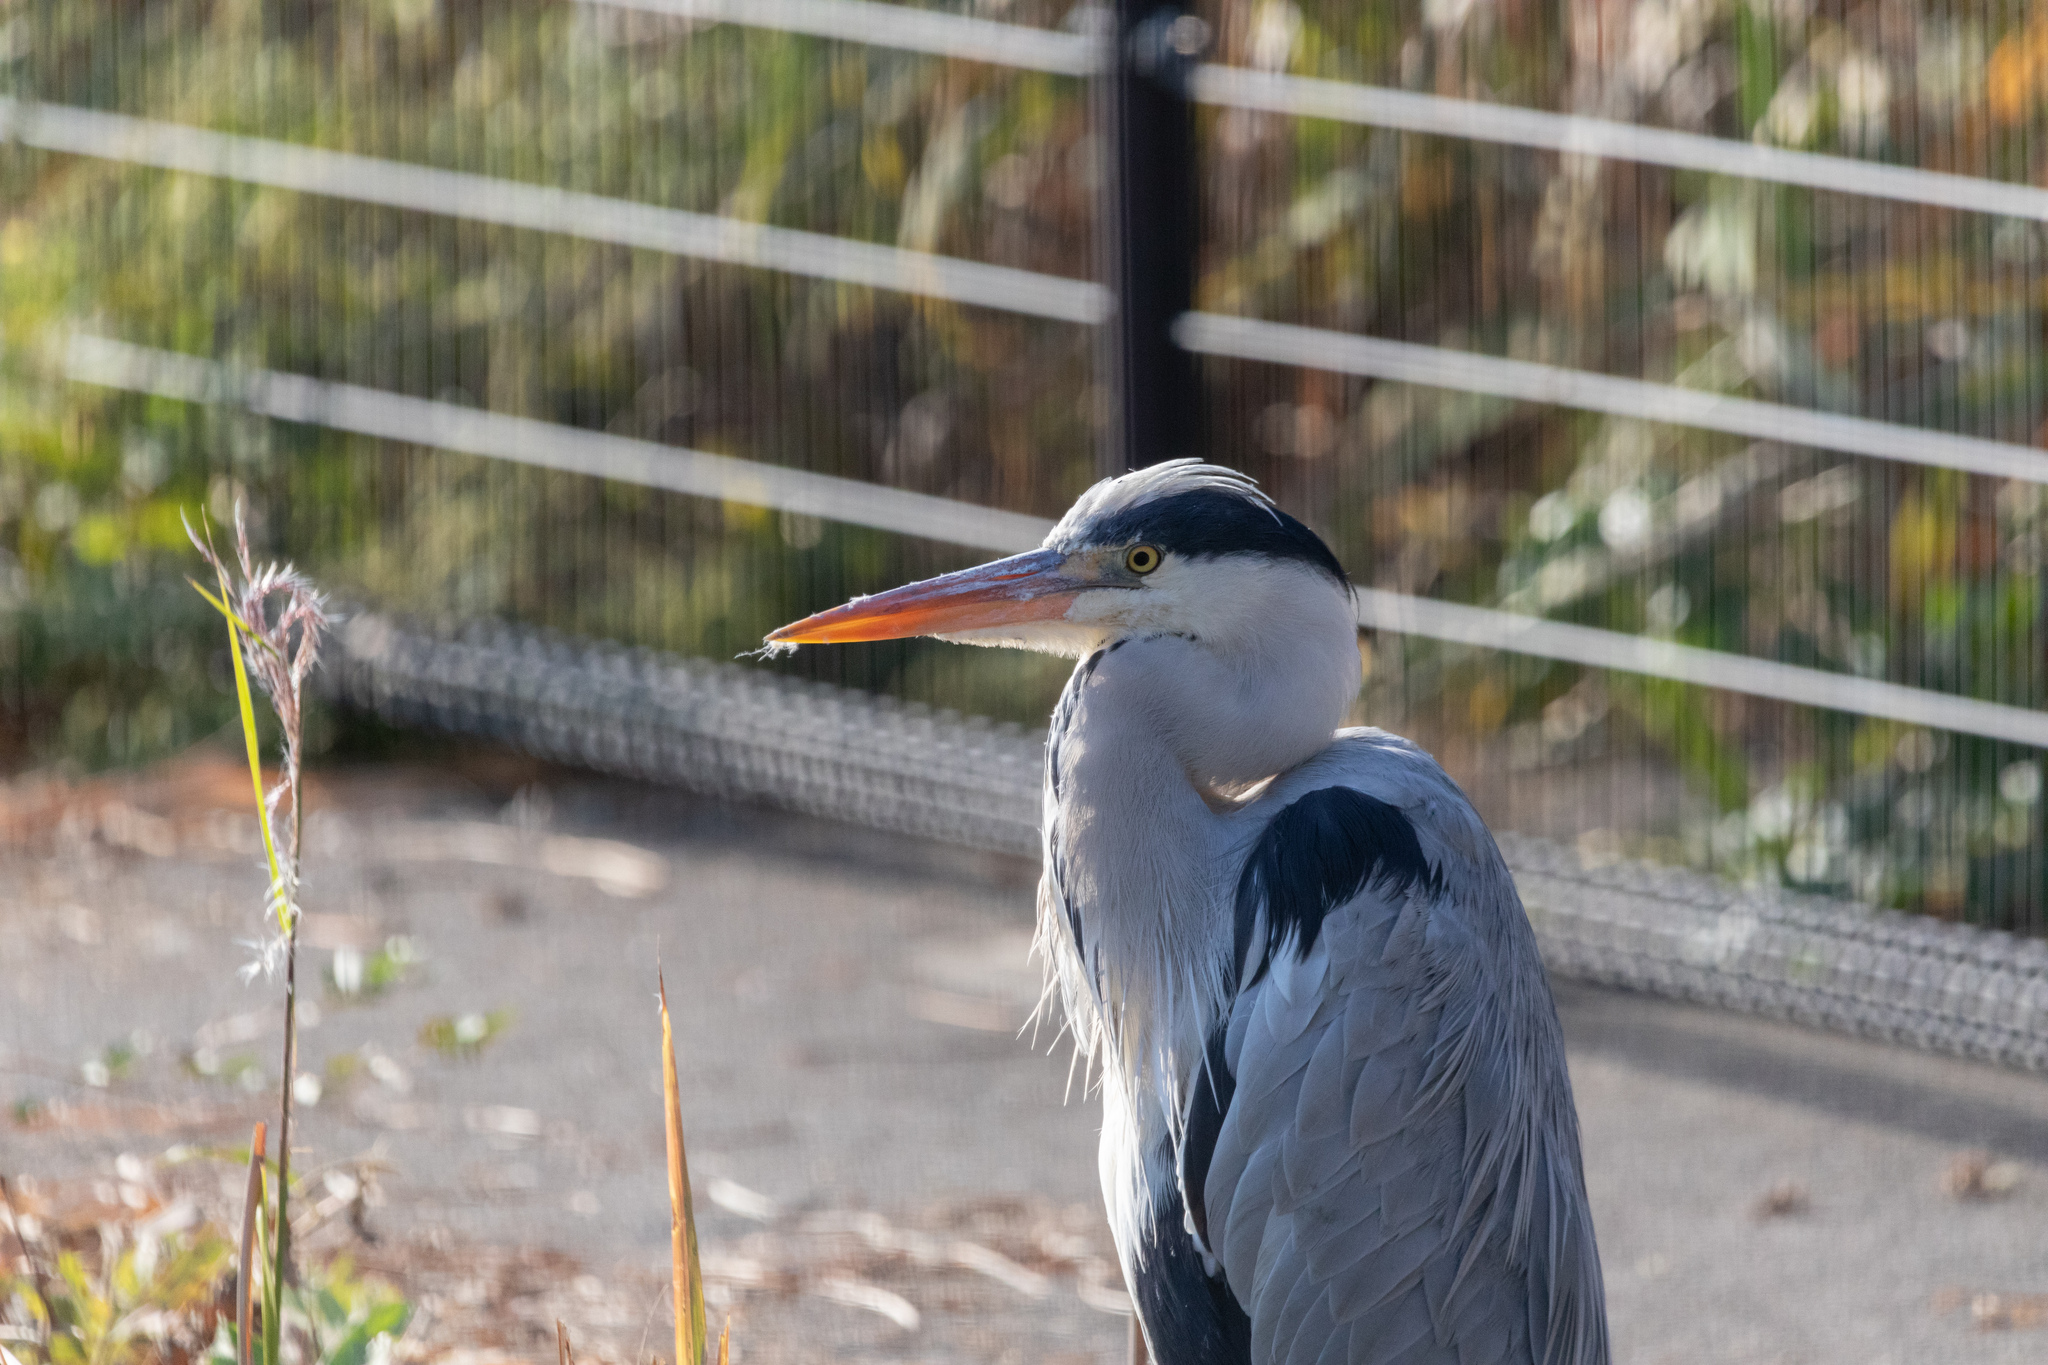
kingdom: Animalia
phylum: Chordata
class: Aves
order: Pelecaniformes
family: Ardeidae
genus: Ardea
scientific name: Ardea cinerea
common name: Grey heron
